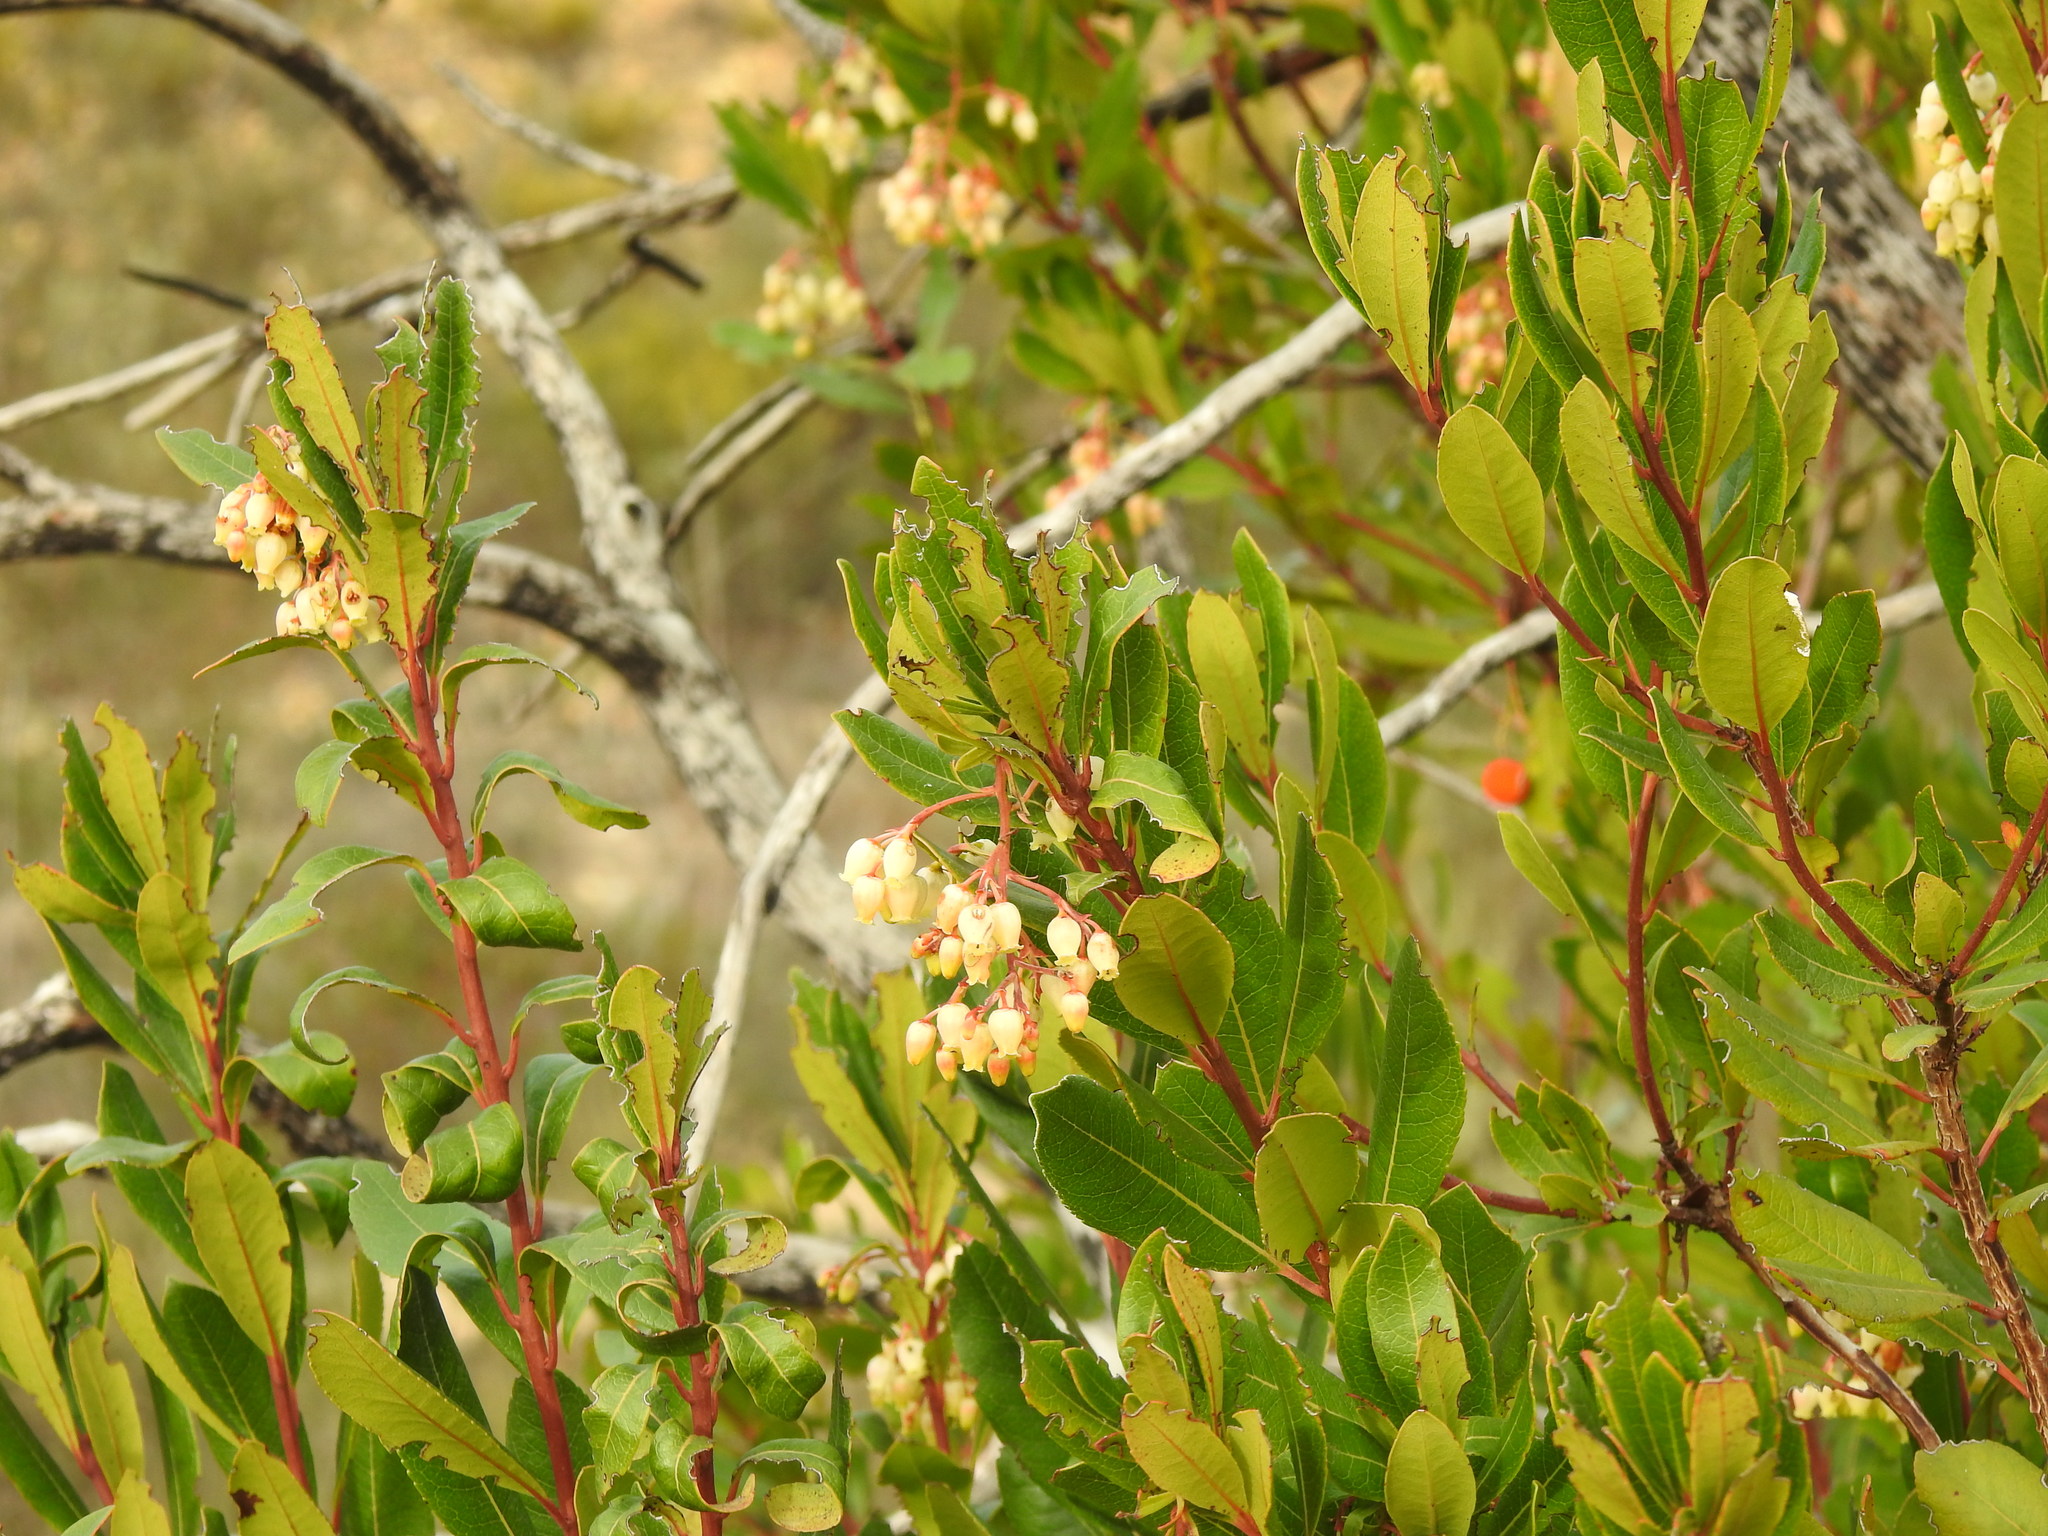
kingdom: Plantae
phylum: Tracheophyta
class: Magnoliopsida
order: Ericales
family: Ericaceae
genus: Arbutus
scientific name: Arbutus unedo
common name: Strawberry-tree
